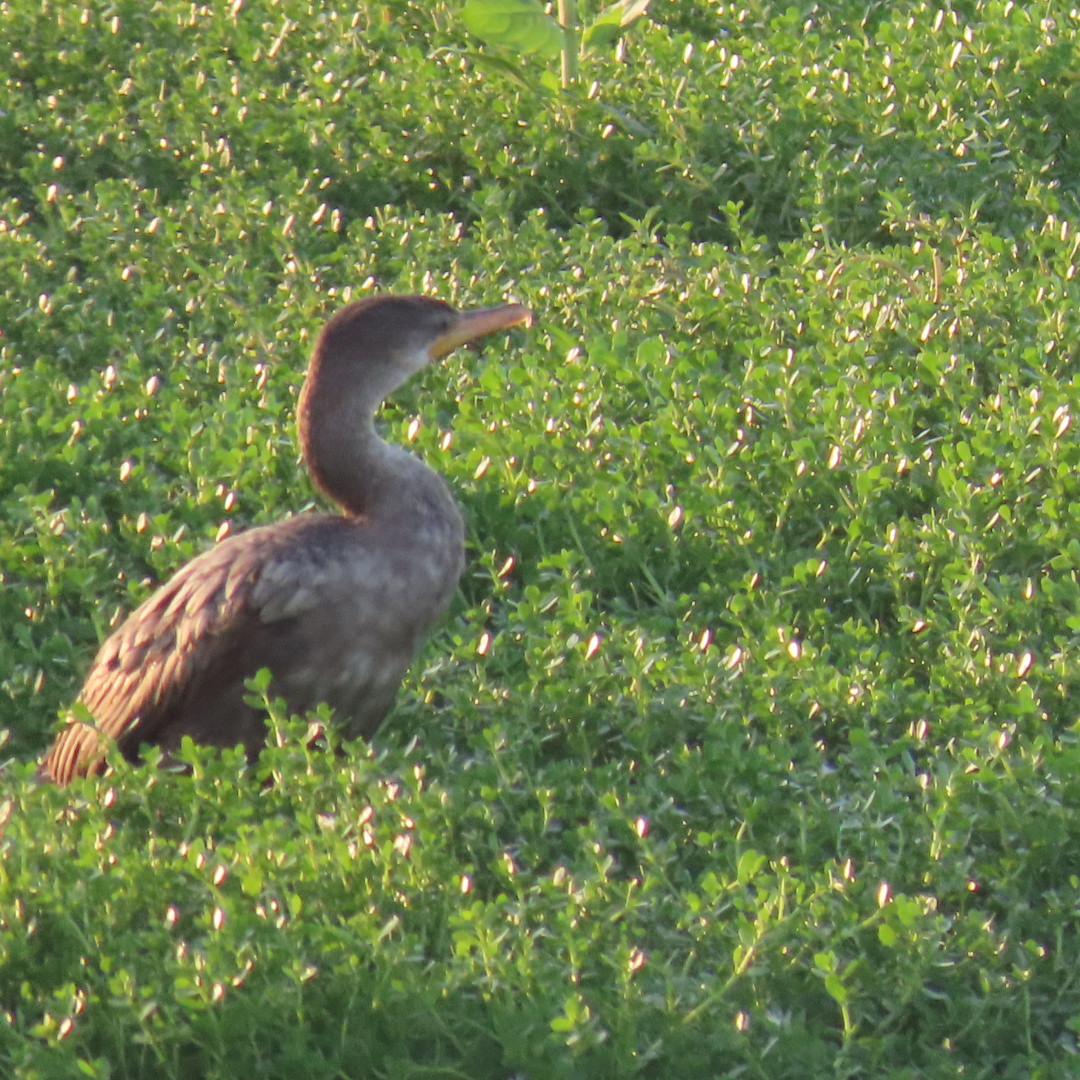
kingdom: Animalia
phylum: Chordata
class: Aves
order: Suliformes
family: Phalacrocoracidae
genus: Phalacrocorax
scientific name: Phalacrocorax brasilianus
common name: Neotropic cormorant
